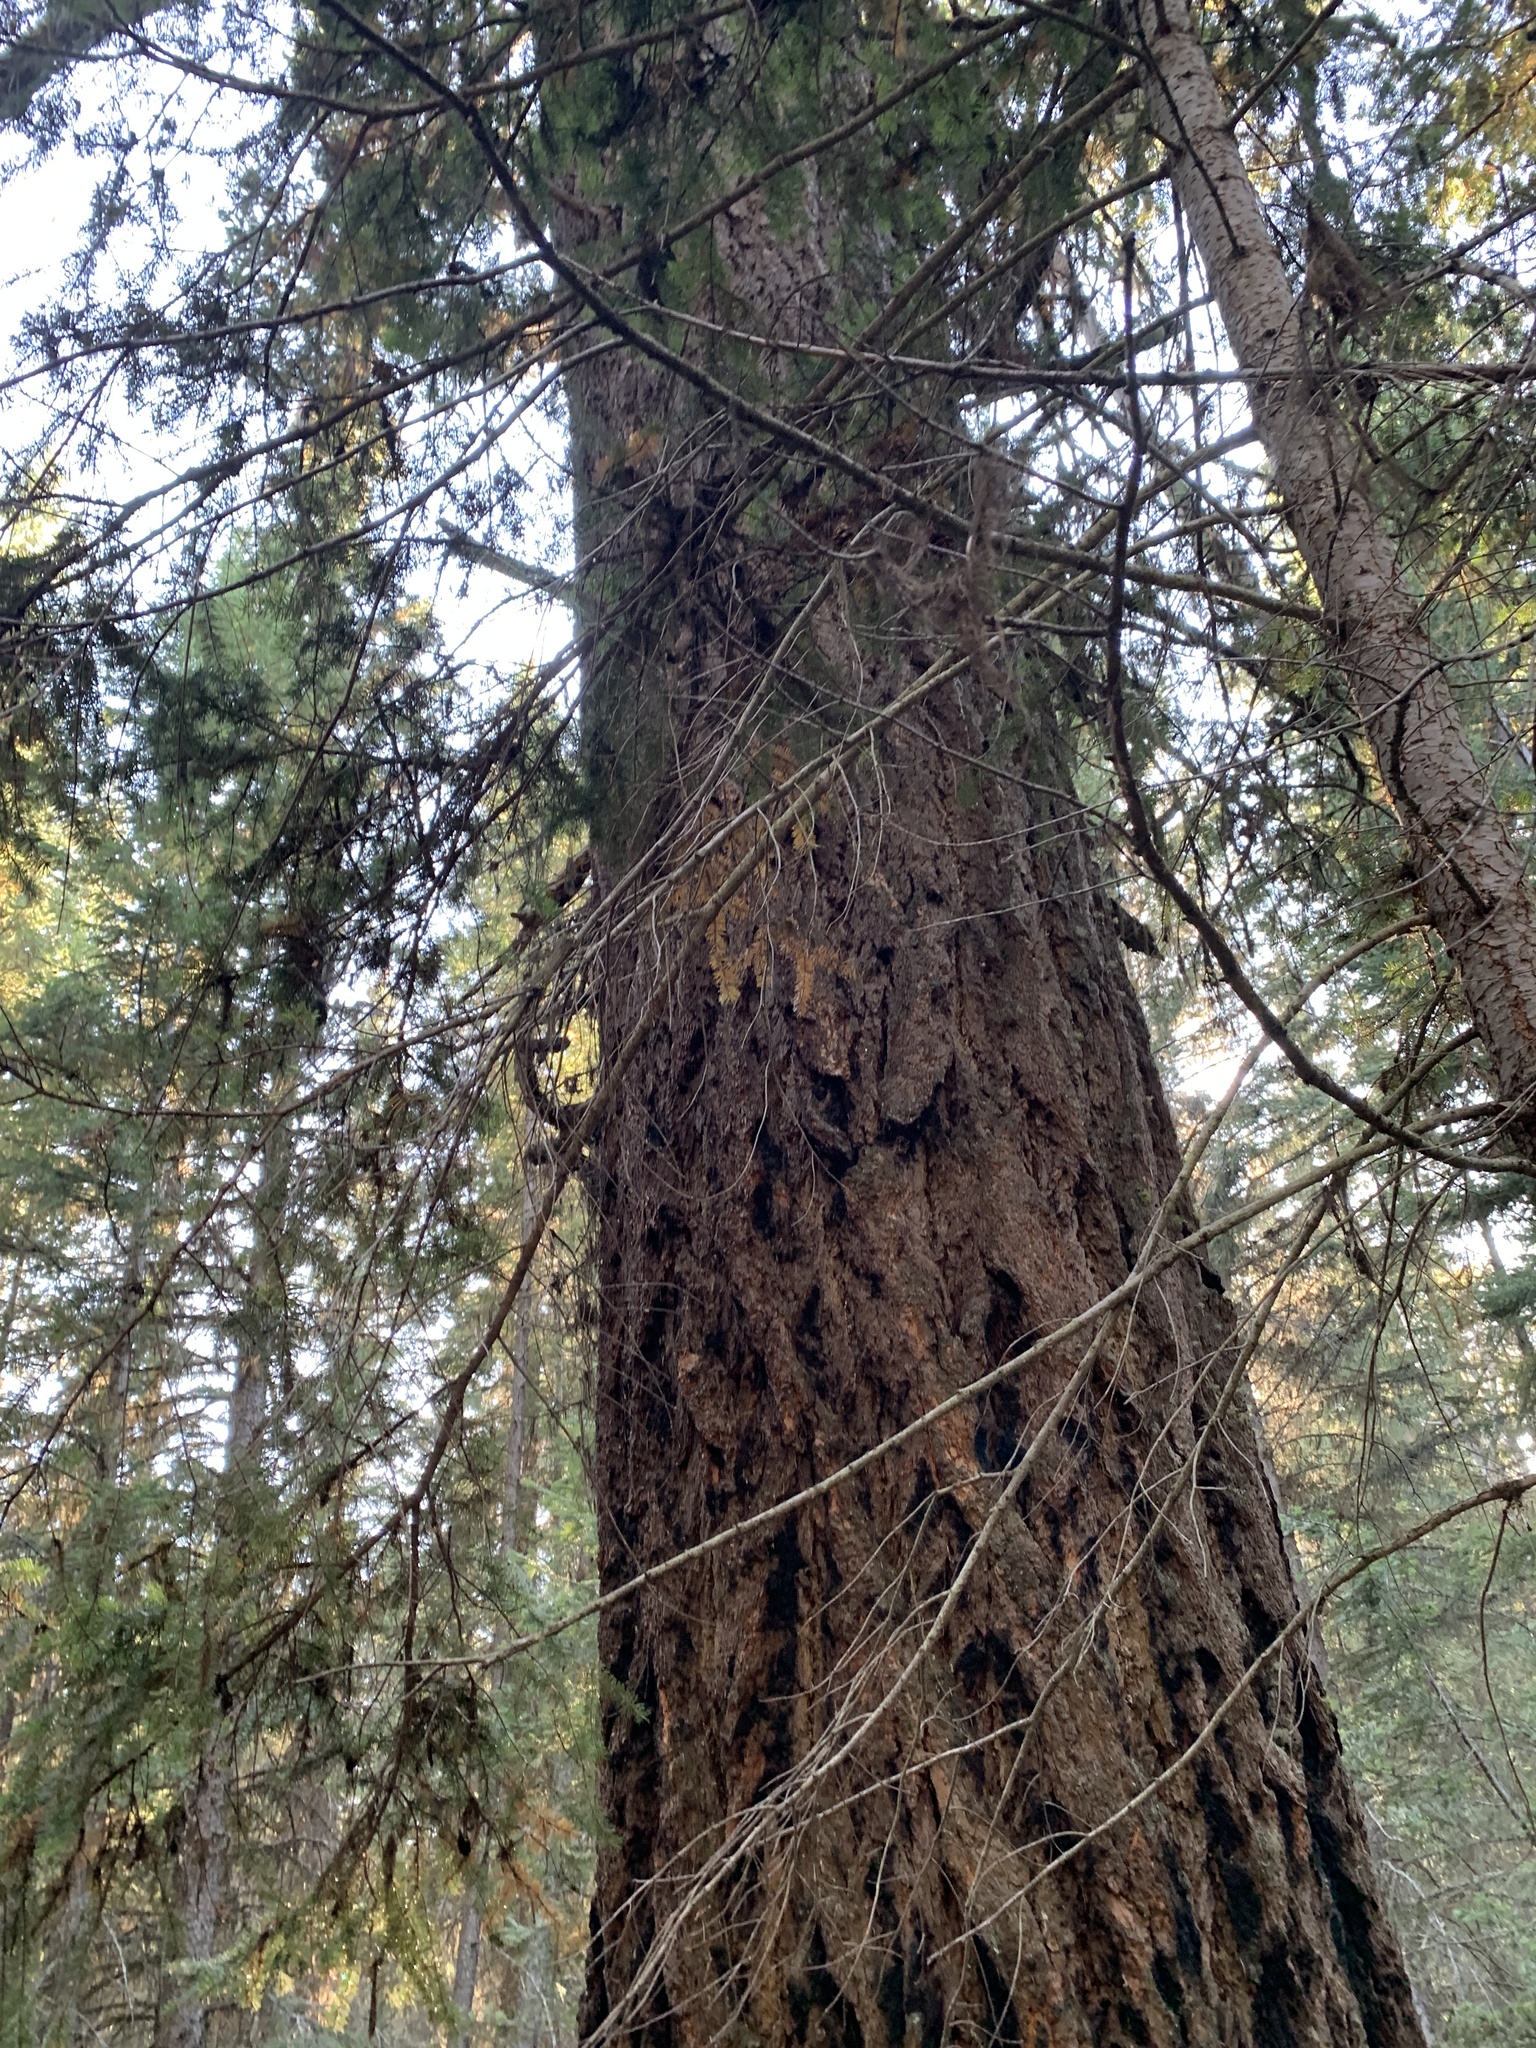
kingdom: Plantae
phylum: Tracheophyta
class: Pinopsida
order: Pinales
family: Pinaceae
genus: Pseudotsuga
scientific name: Pseudotsuga menziesii
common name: Douglas fir
